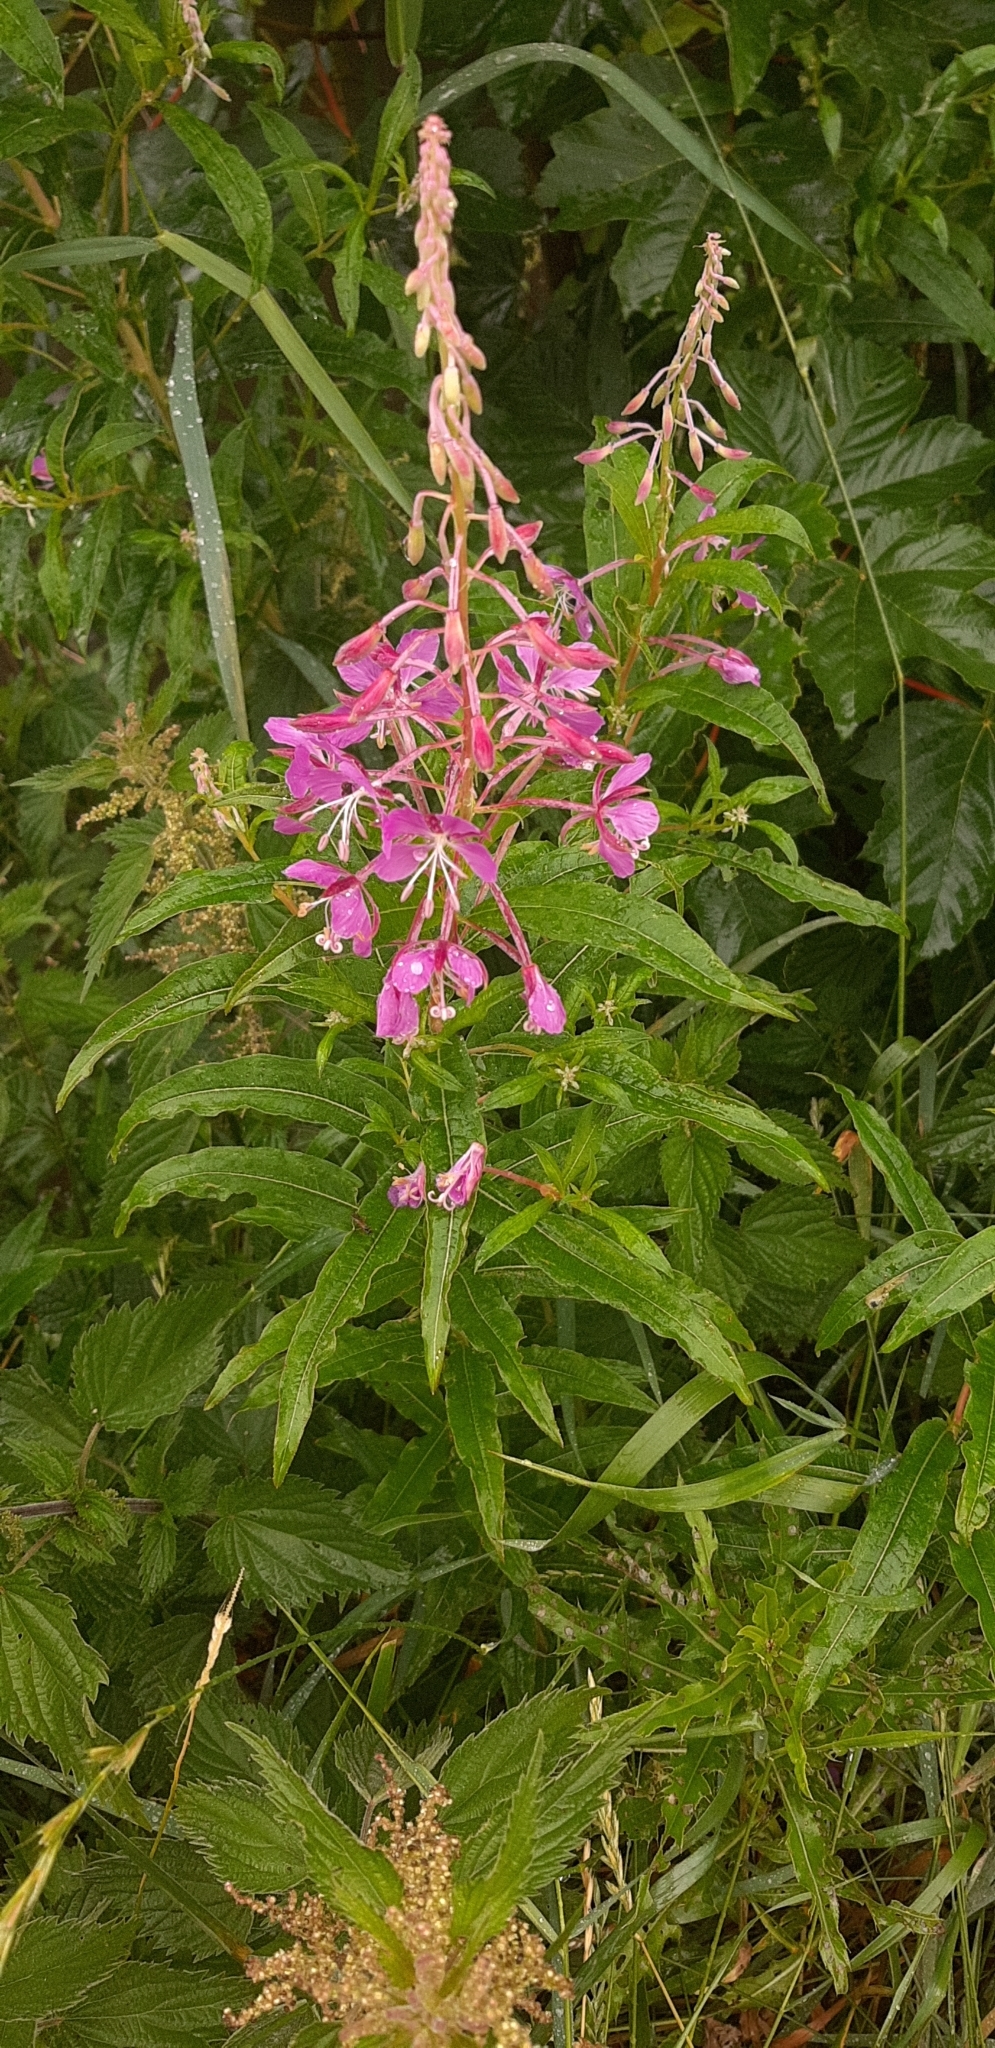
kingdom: Plantae
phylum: Tracheophyta
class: Magnoliopsida
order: Myrtales
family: Onagraceae
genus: Chamaenerion
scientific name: Chamaenerion angustifolium
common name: Fireweed
